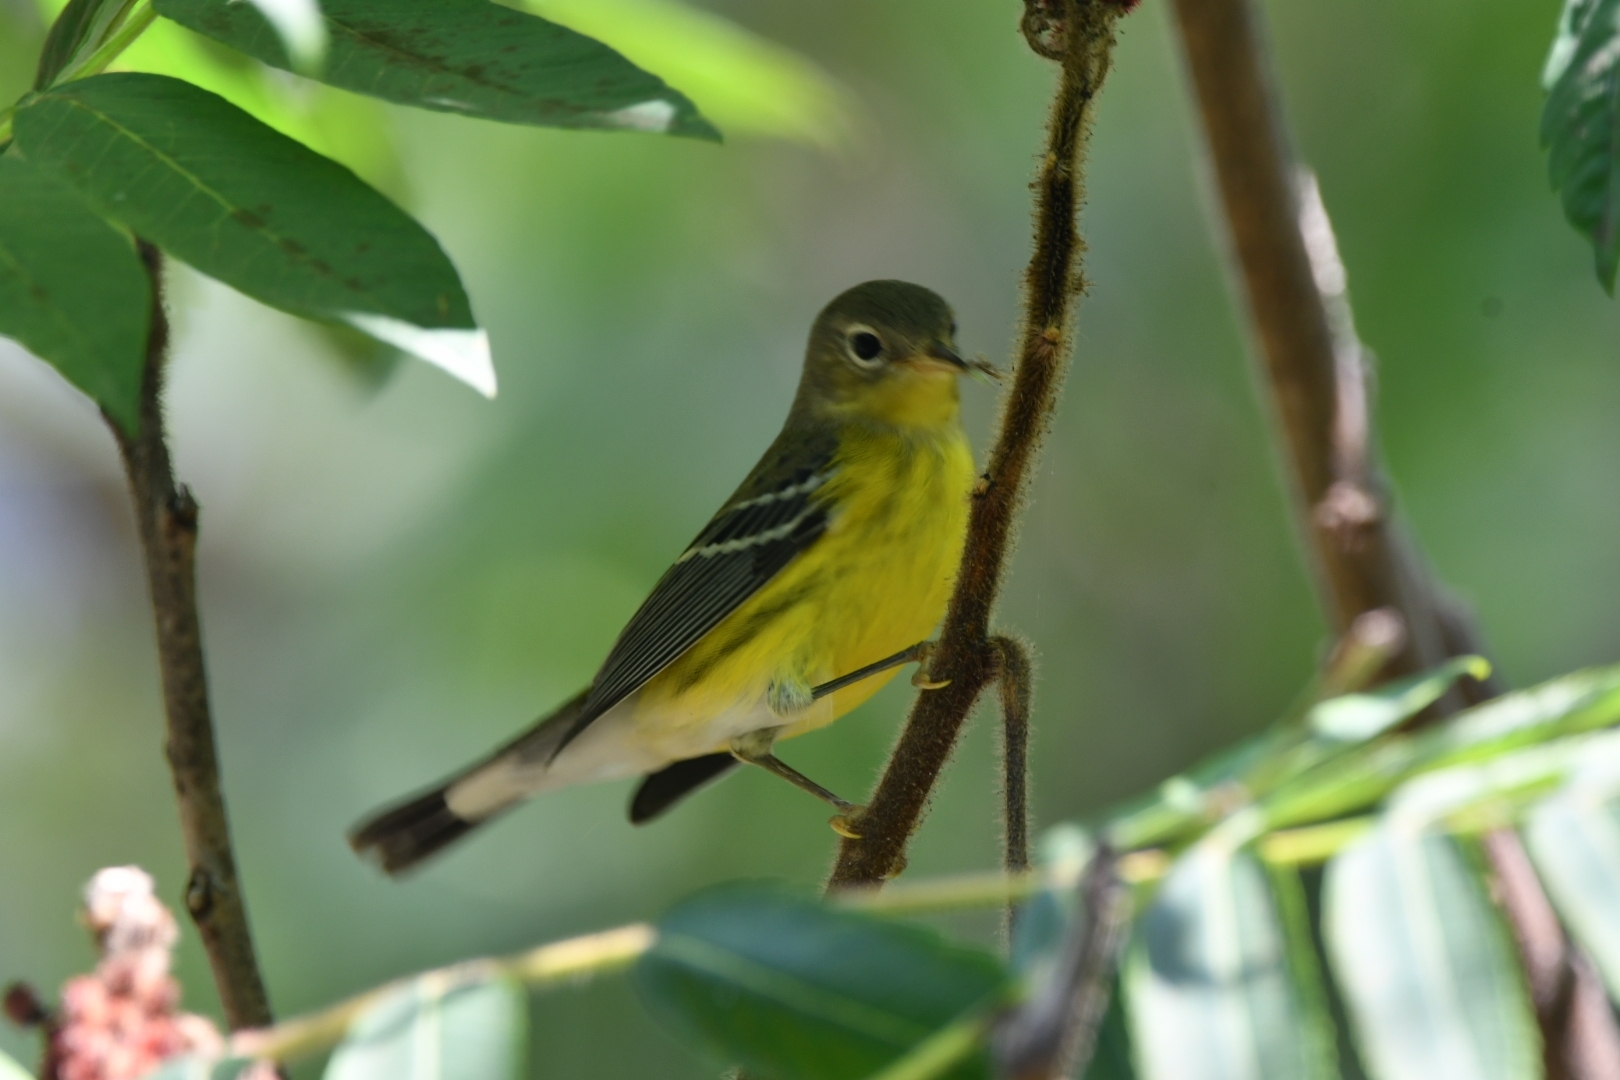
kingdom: Animalia
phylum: Chordata
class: Aves
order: Passeriformes
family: Parulidae
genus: Setophaga
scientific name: Setophaga magnolia
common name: Magnolia warbler
